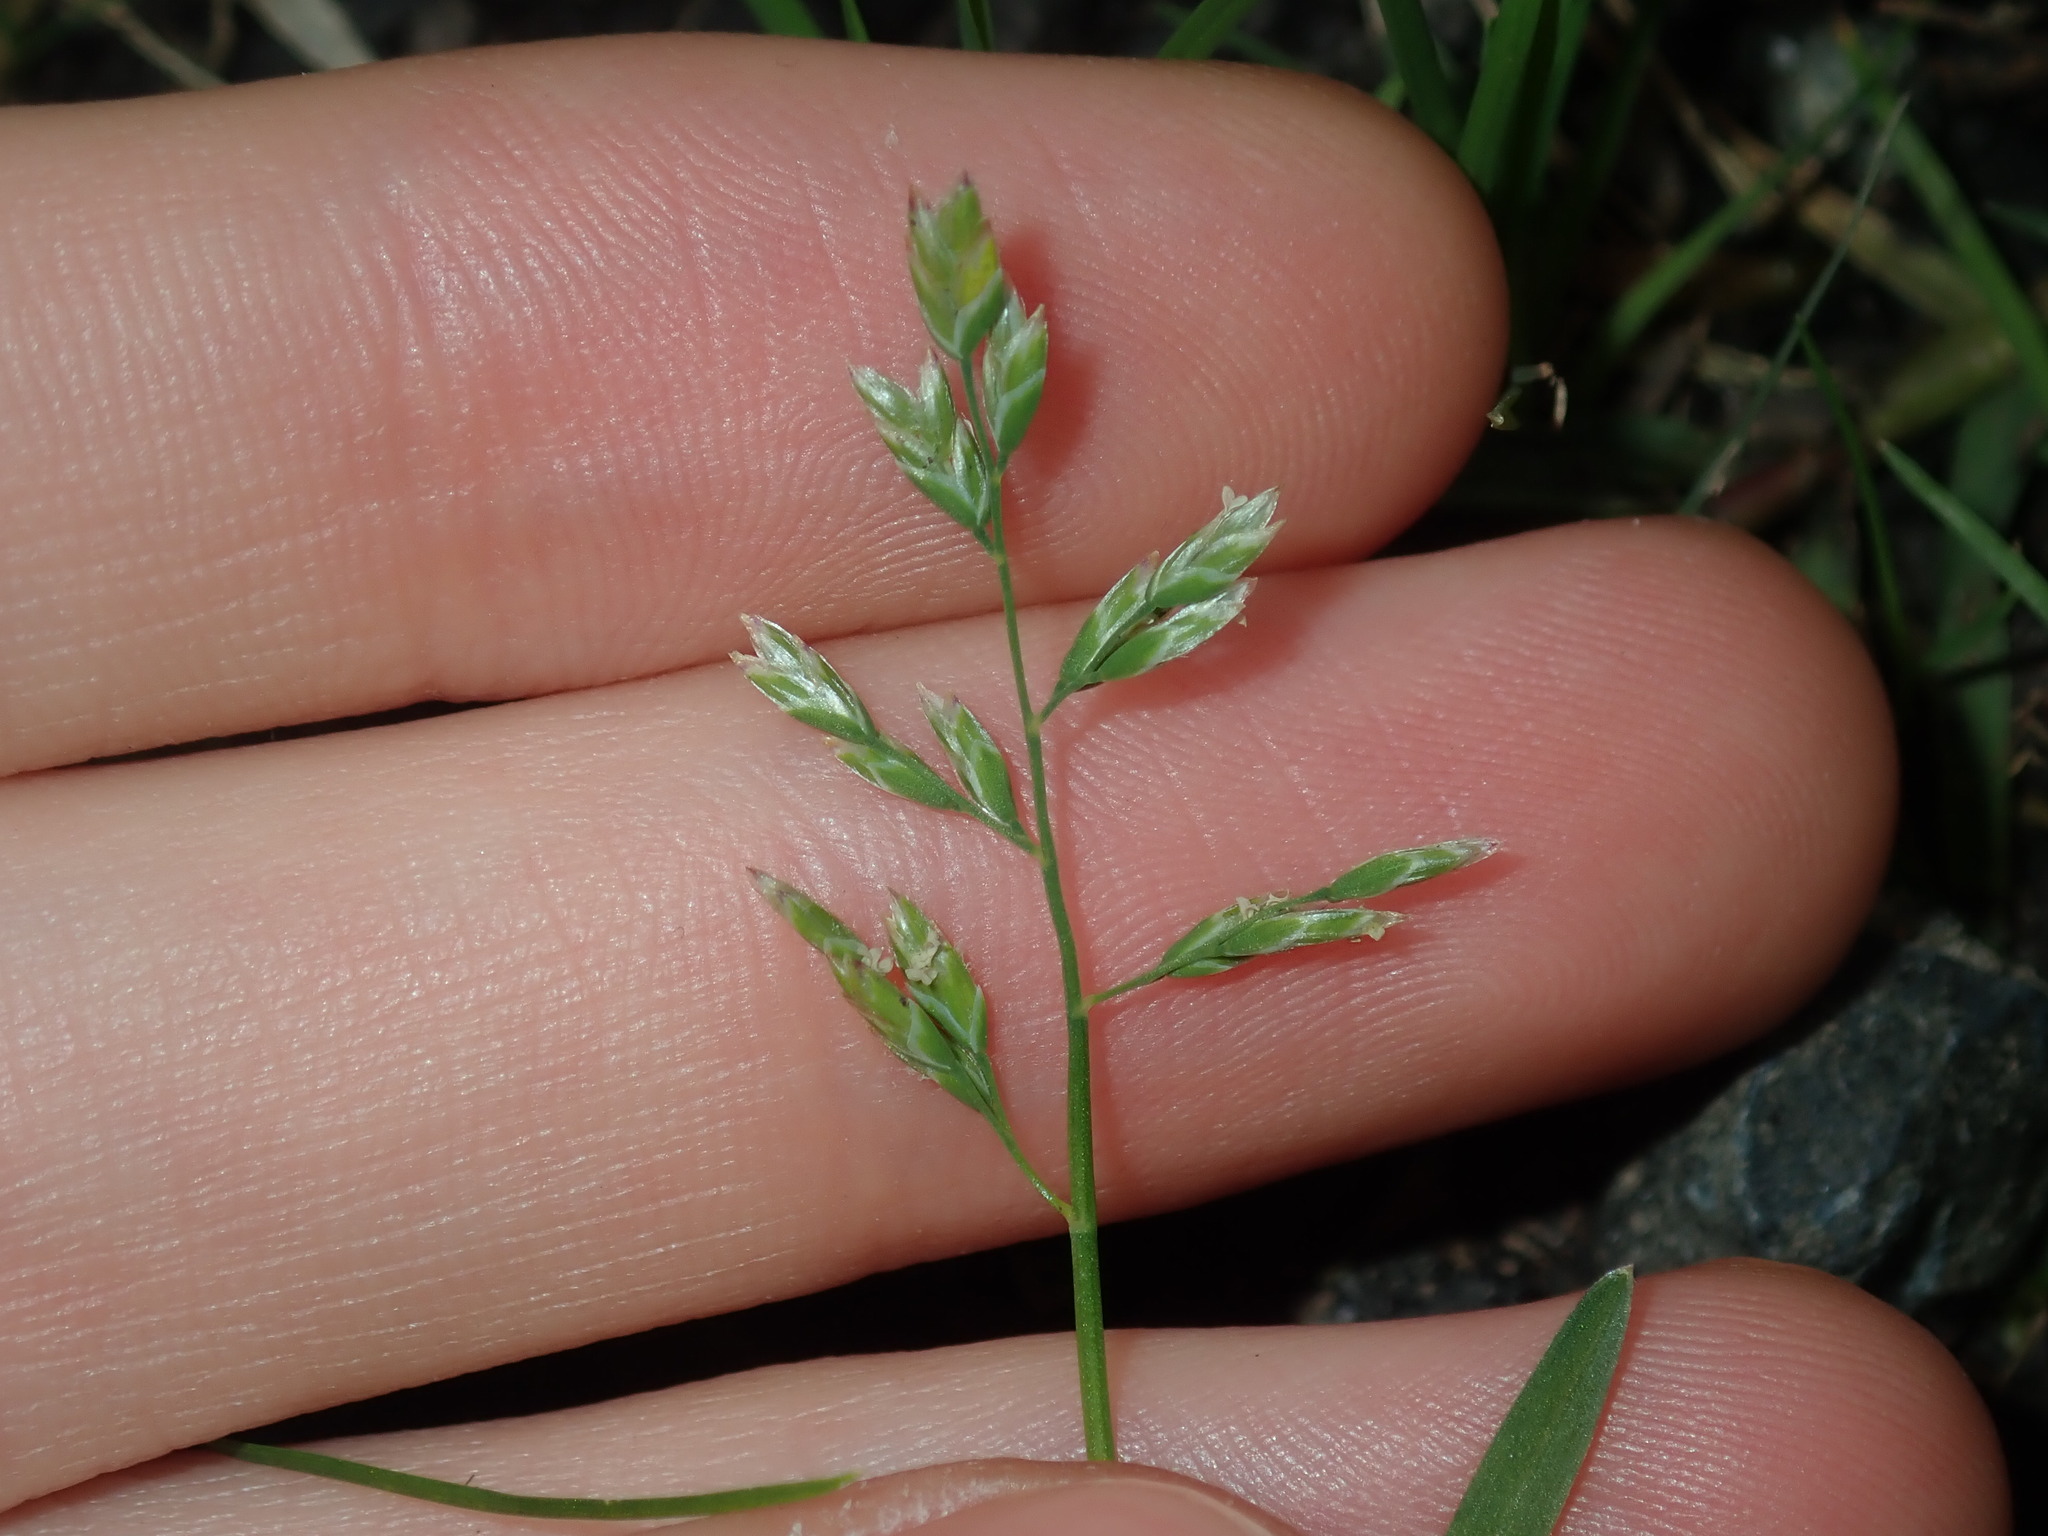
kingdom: Plantae
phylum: Tracheophyta
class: Liliopsida
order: Poales
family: Poaceae
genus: Poa
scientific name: Poa annua
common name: Annual bluegrass
